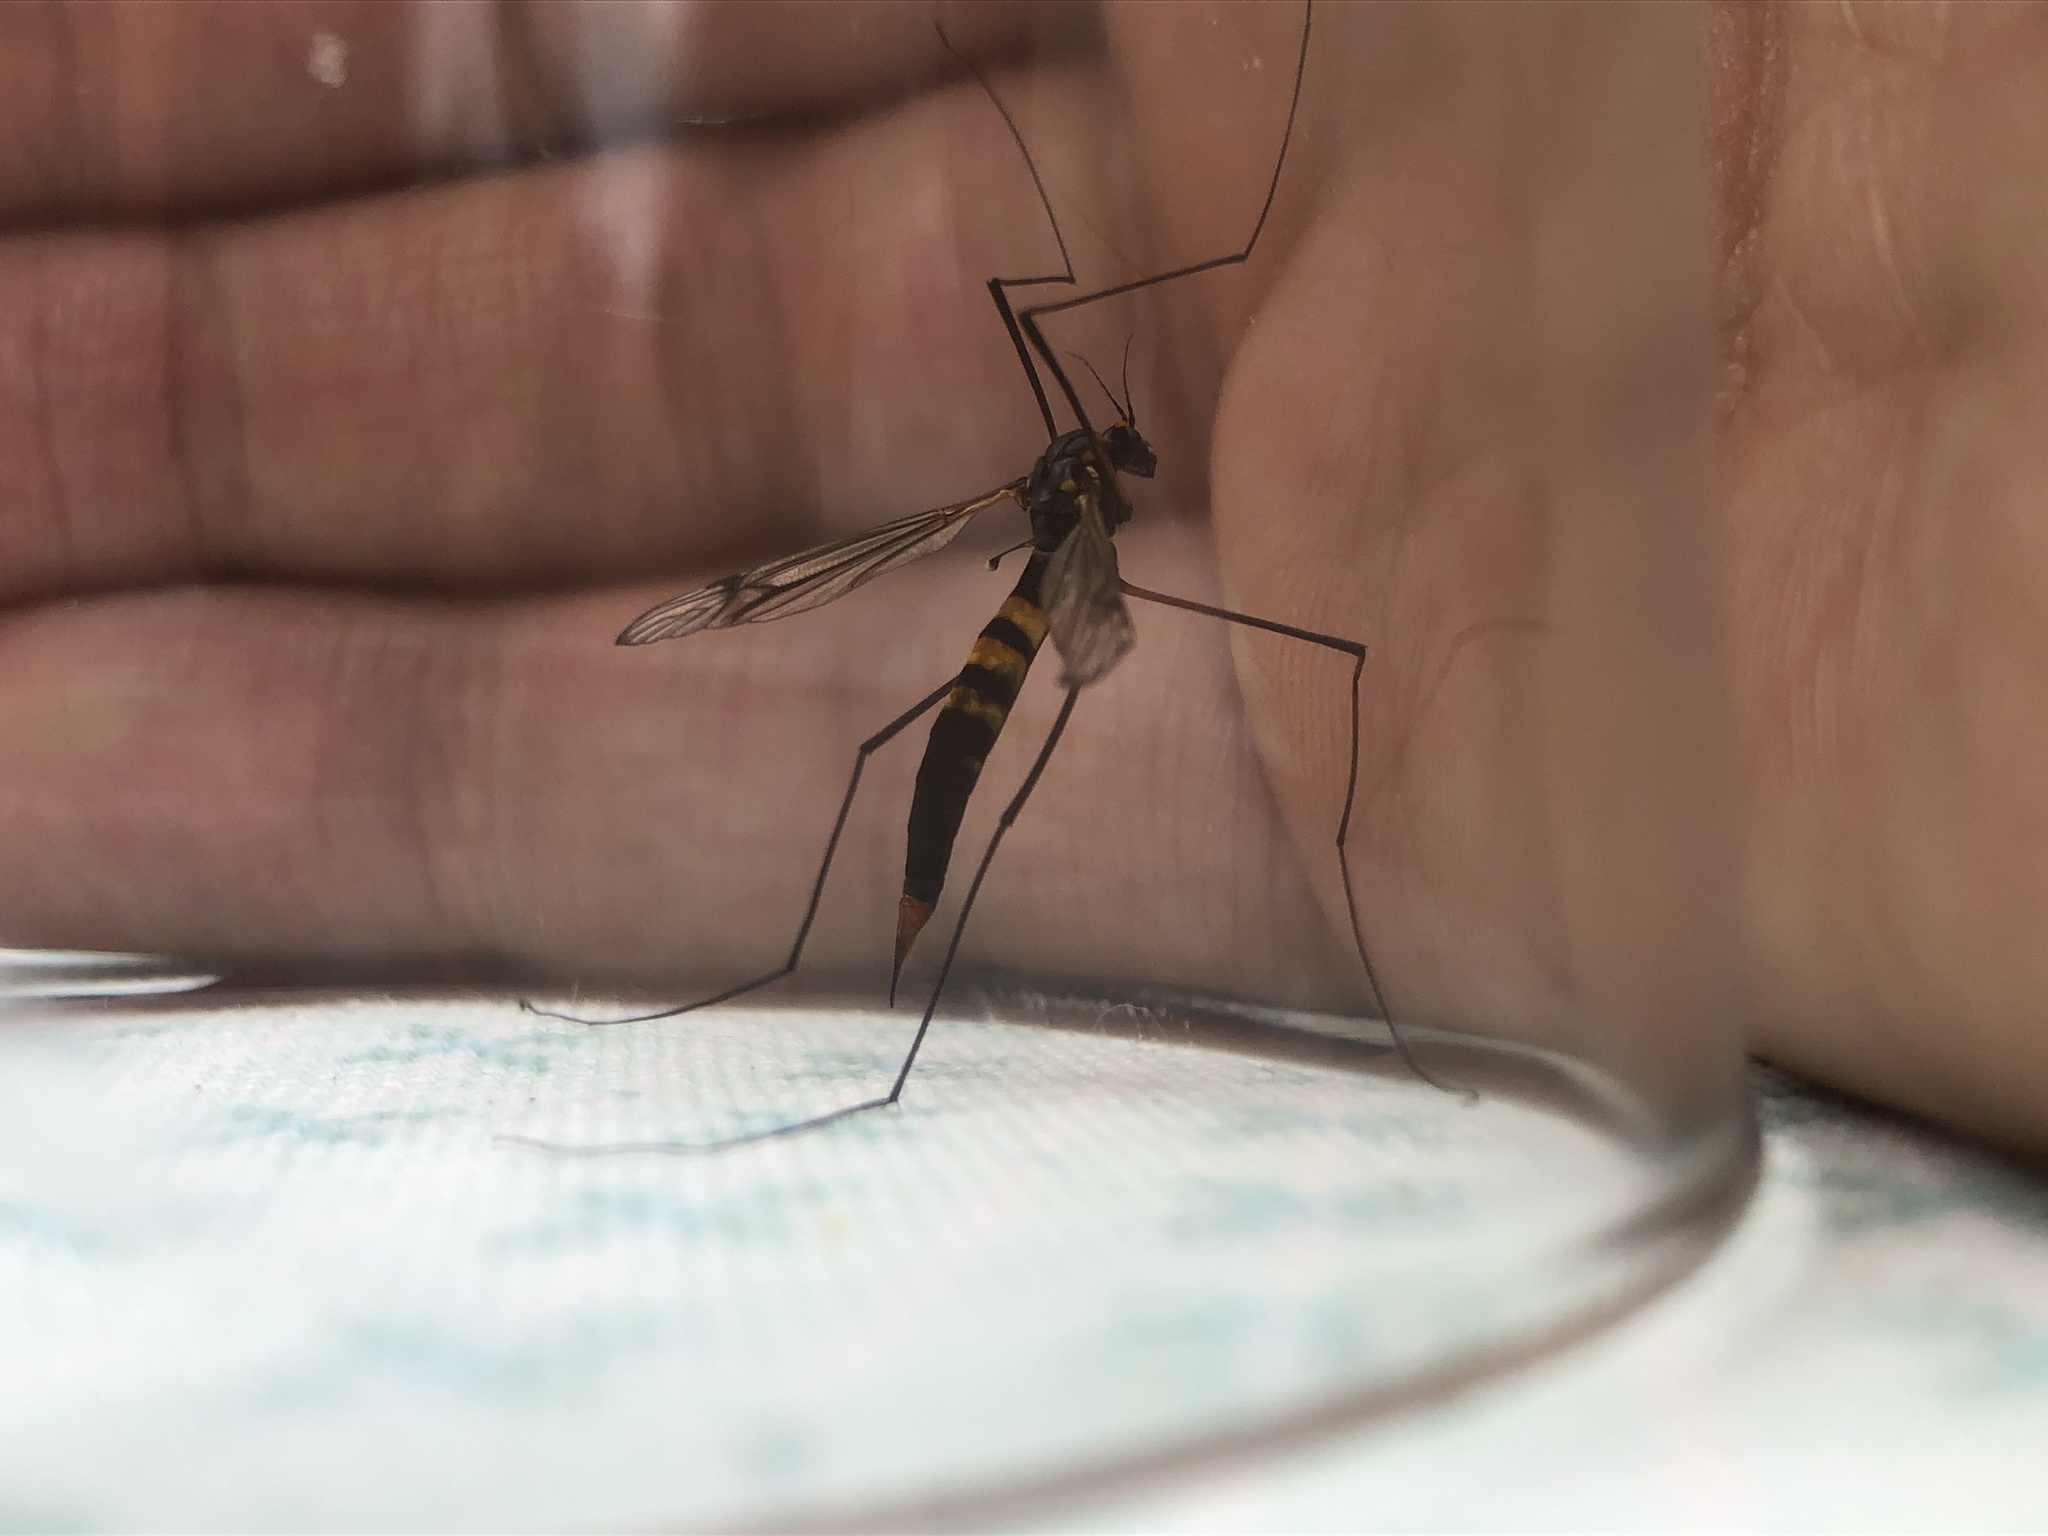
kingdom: Animalia
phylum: Arthropoda
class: Insecta
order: Diptera
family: Tipulidae
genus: Nephrotoma
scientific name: Nephrotoma crocata
